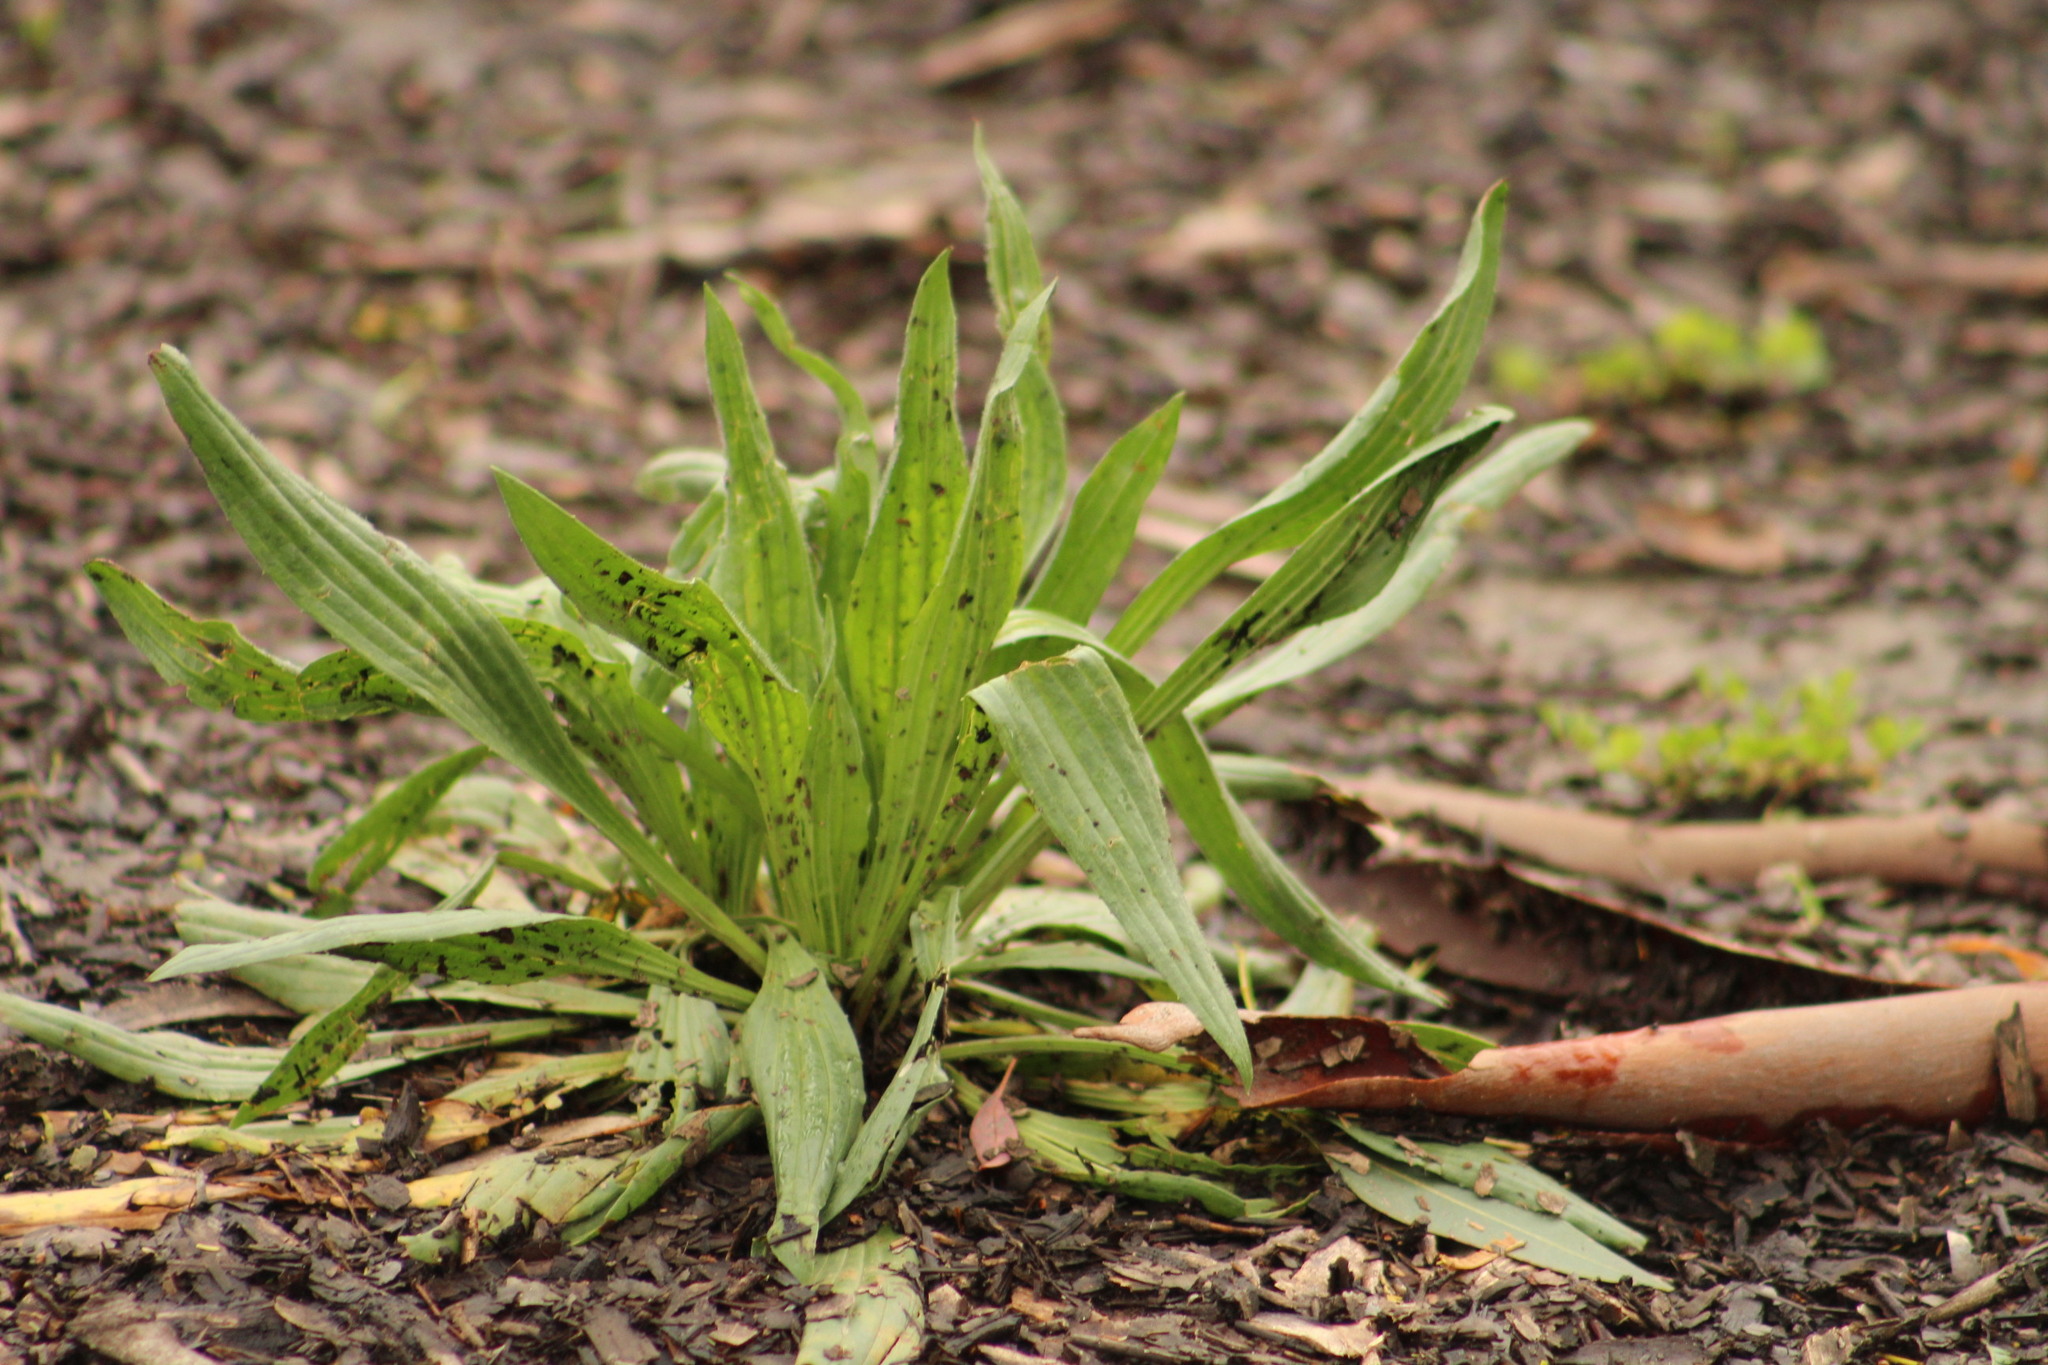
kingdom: Plantae
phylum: Tracheophyta
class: Magnoliopsida
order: Lamiales
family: Plantaginaceae
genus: Plantago
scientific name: Plantago lanceolata
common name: Ribwort plantain
